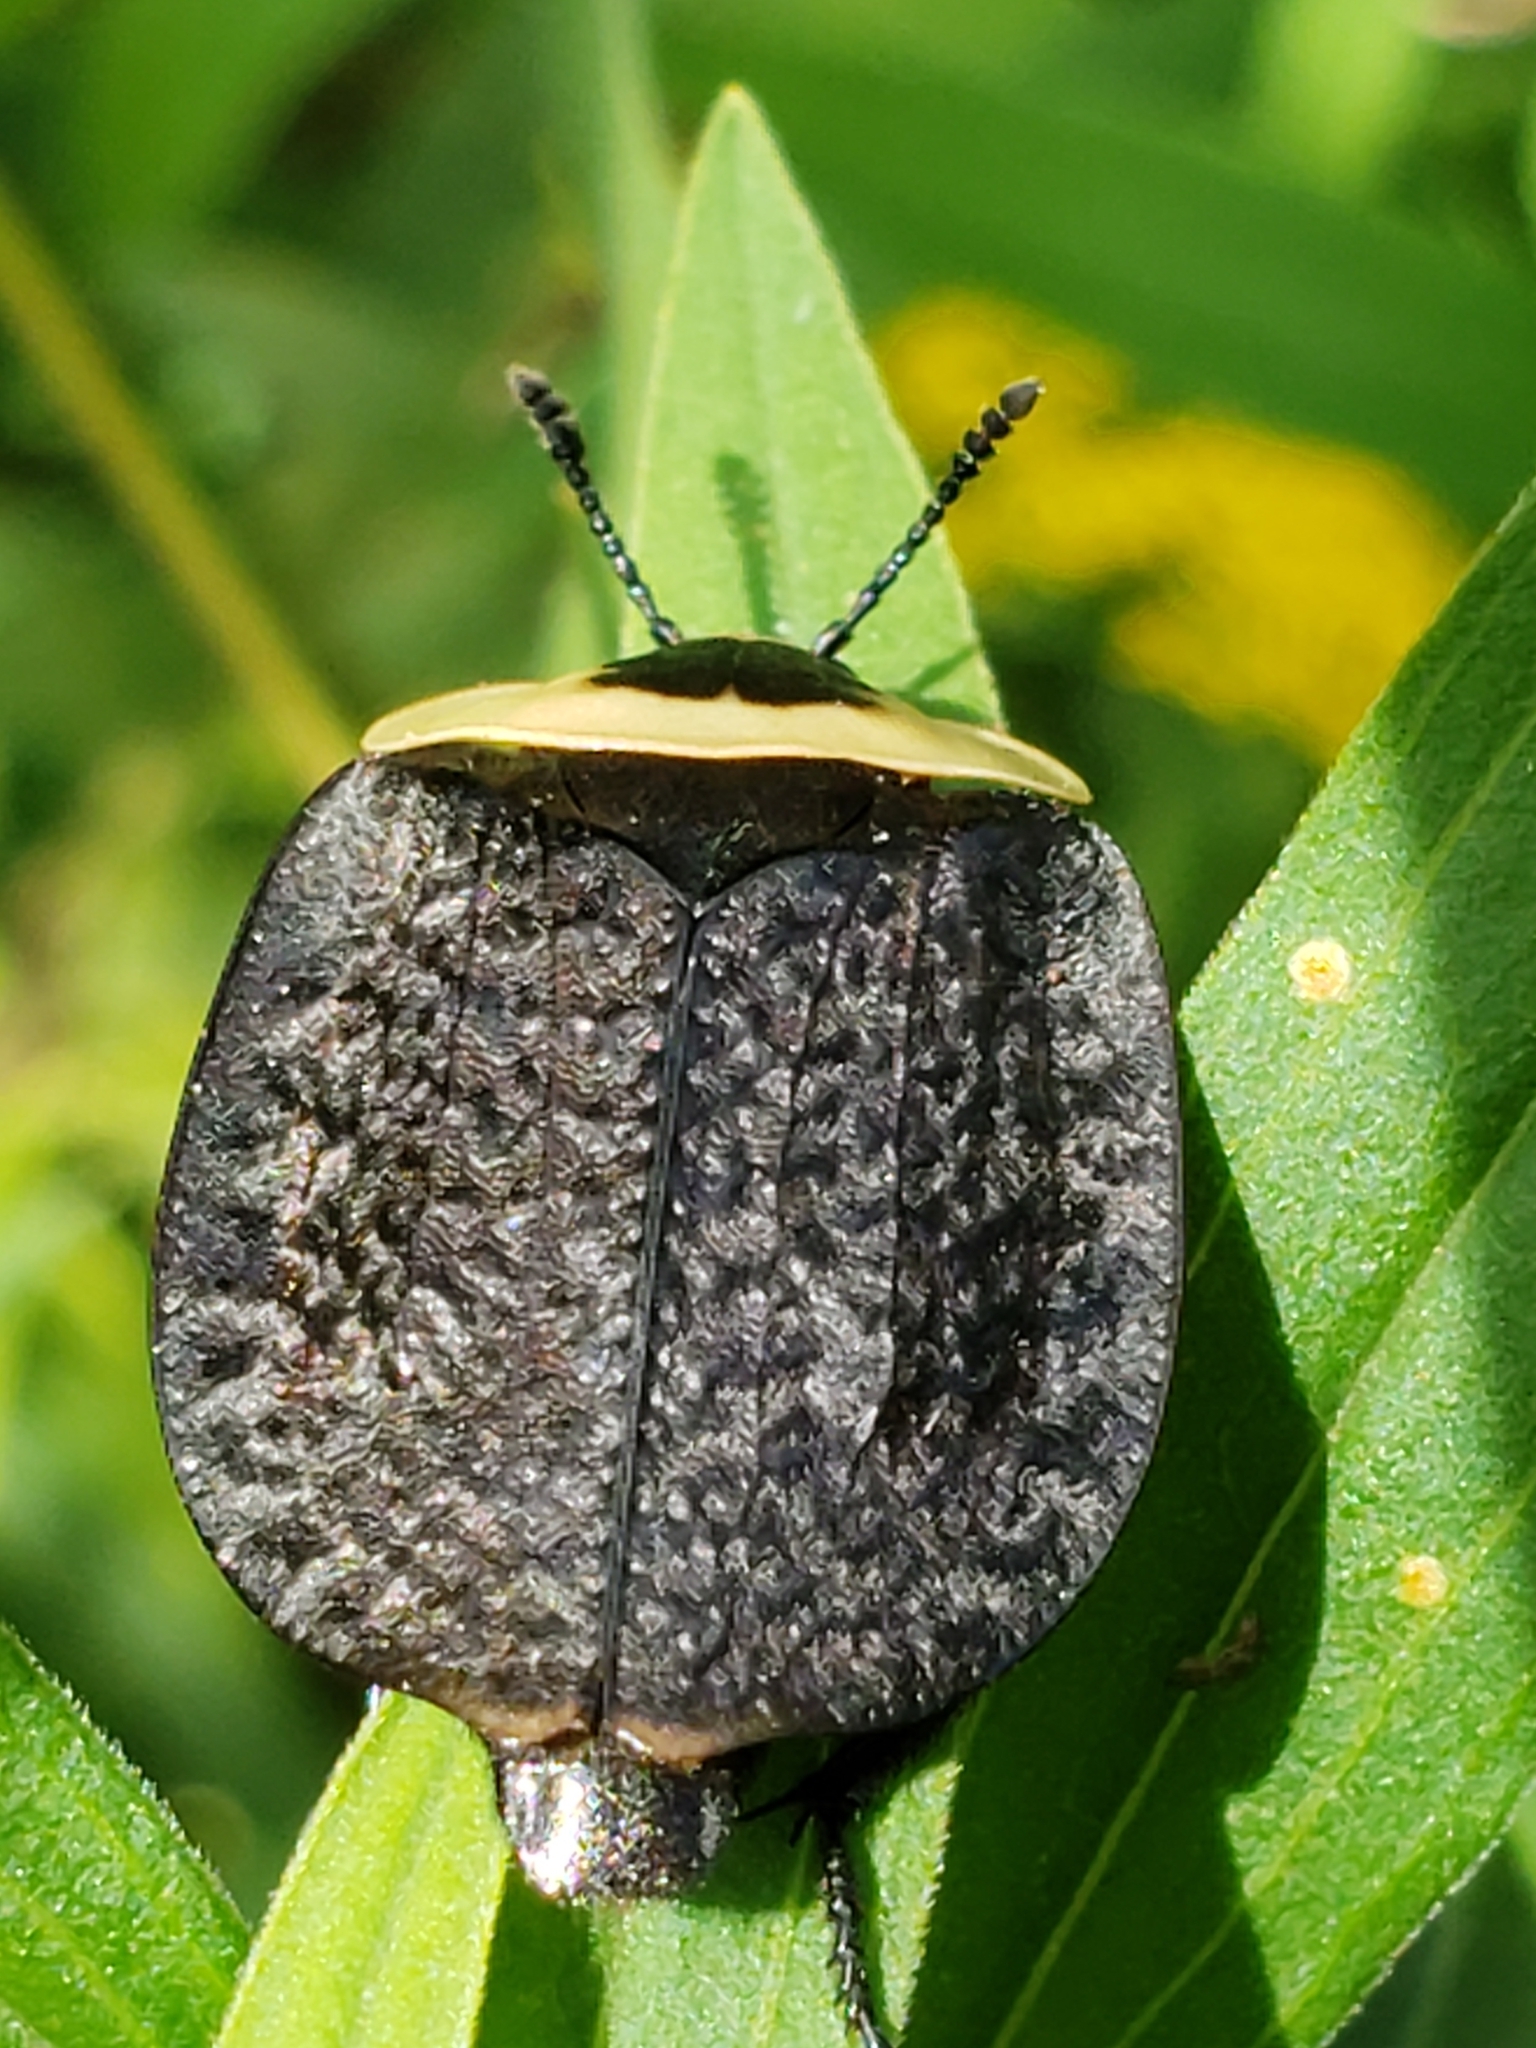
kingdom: Animalia
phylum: Arthropoda
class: Insecta
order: Coleoptera
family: Staphylinidae
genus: Necrophila
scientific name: Necrophila americana
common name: American carrion beetle
